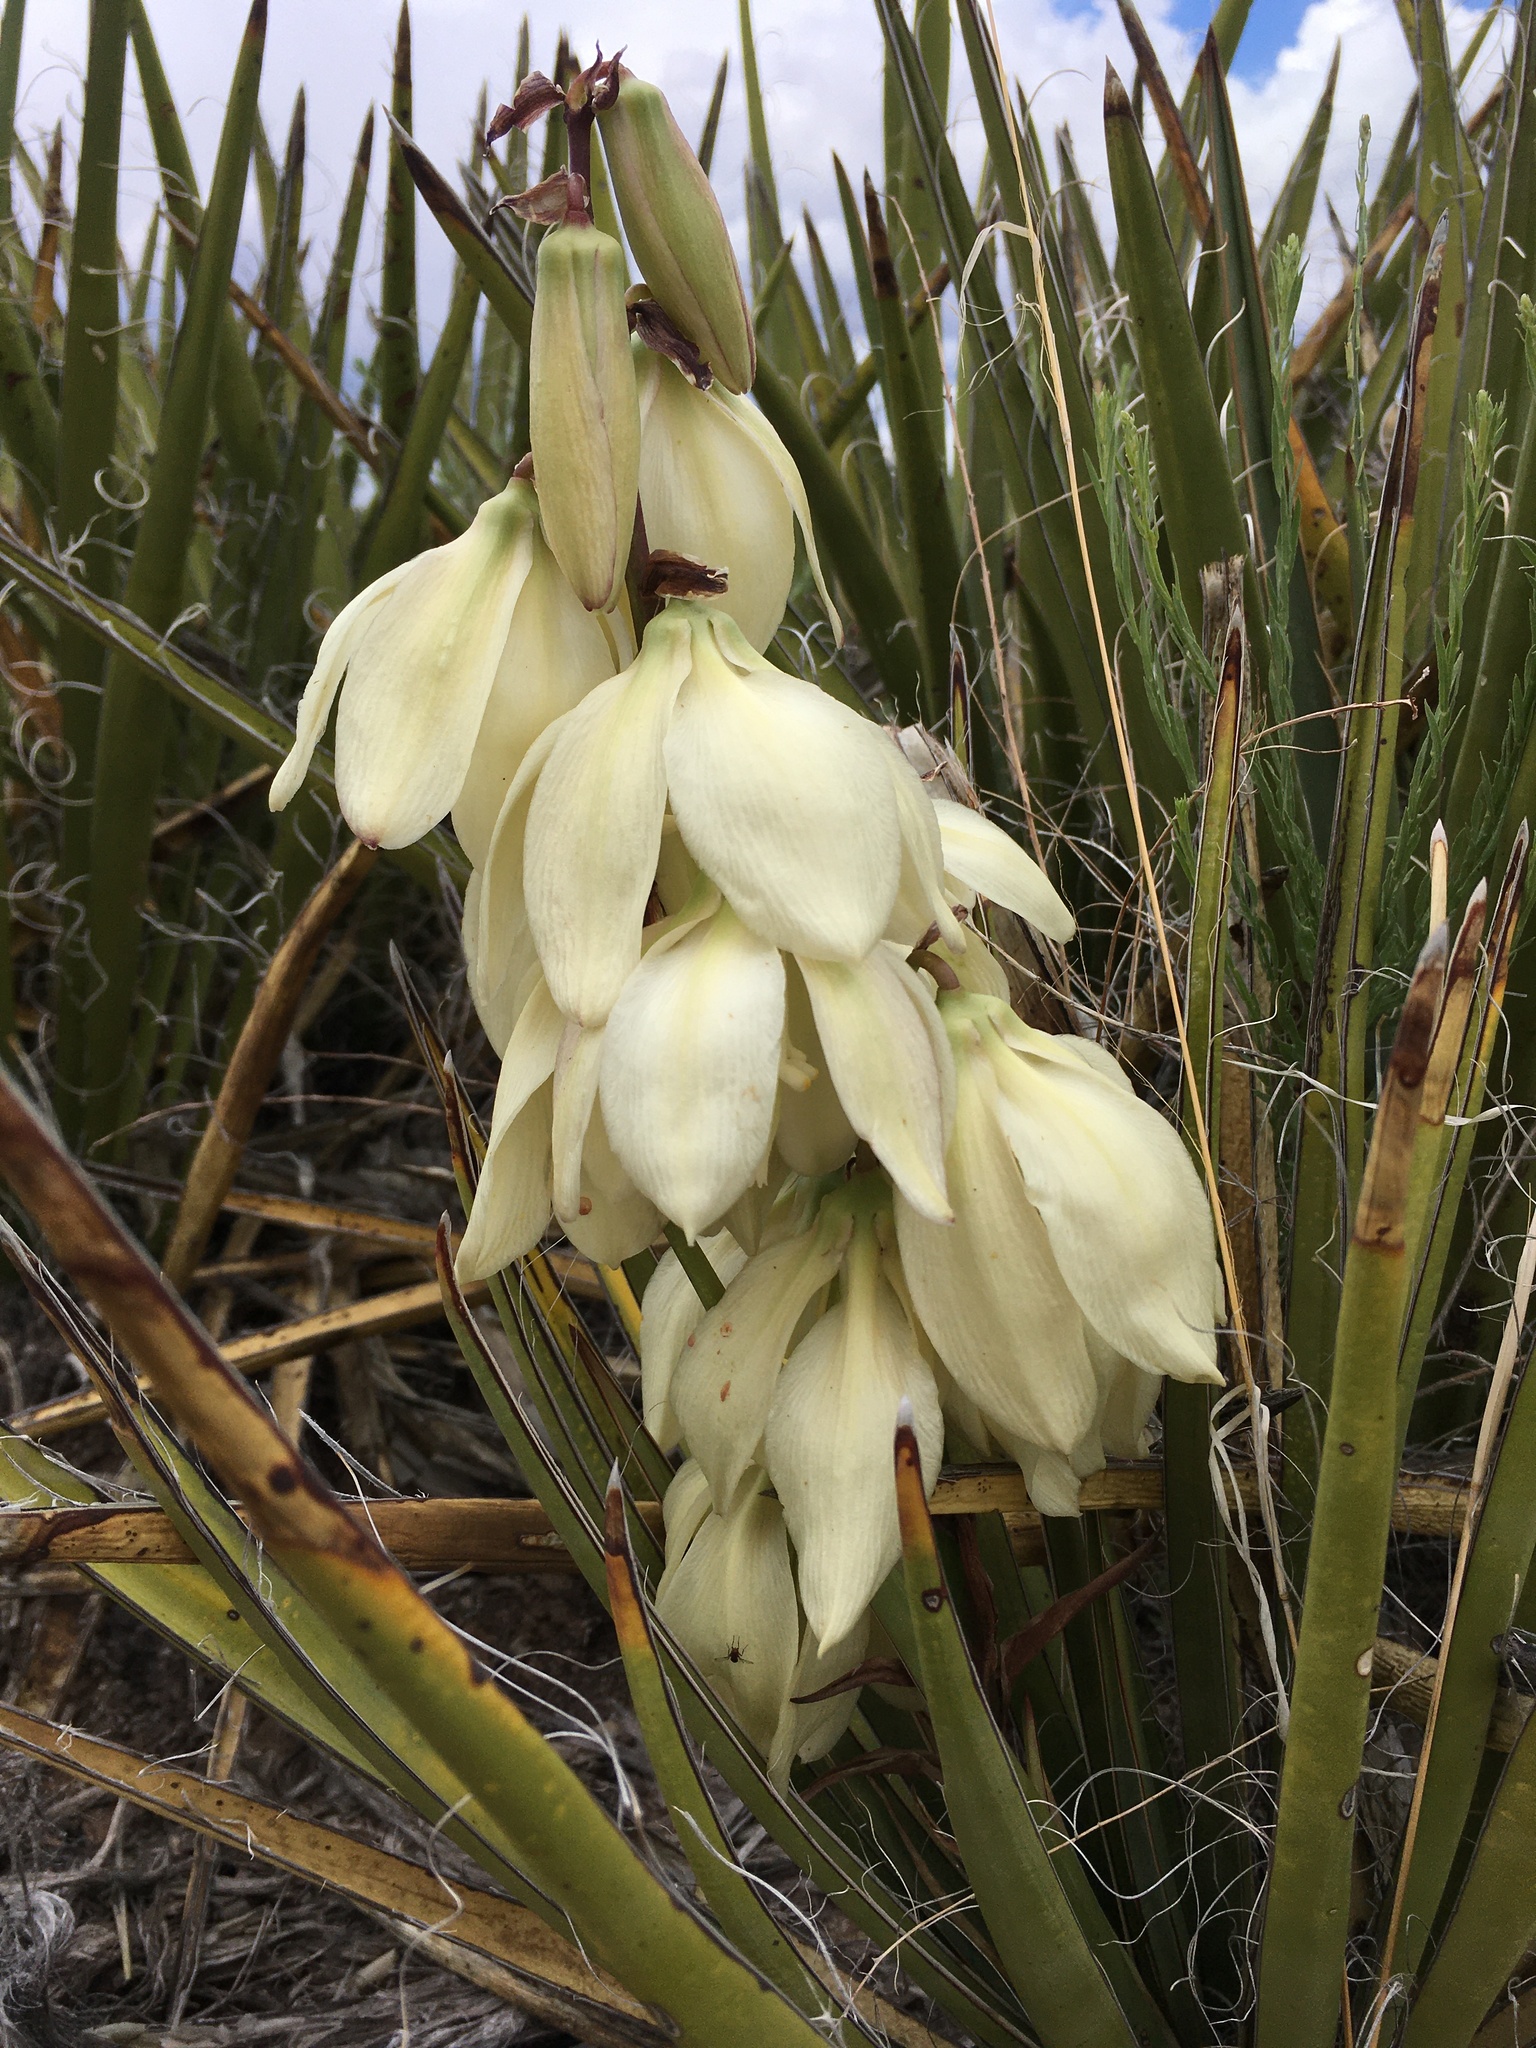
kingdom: Plantae
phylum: Tracheophyta
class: Liliopsida
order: Asparagales
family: Asparagaceae
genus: Yucca
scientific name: Yucca baccata
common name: Banana yucca
